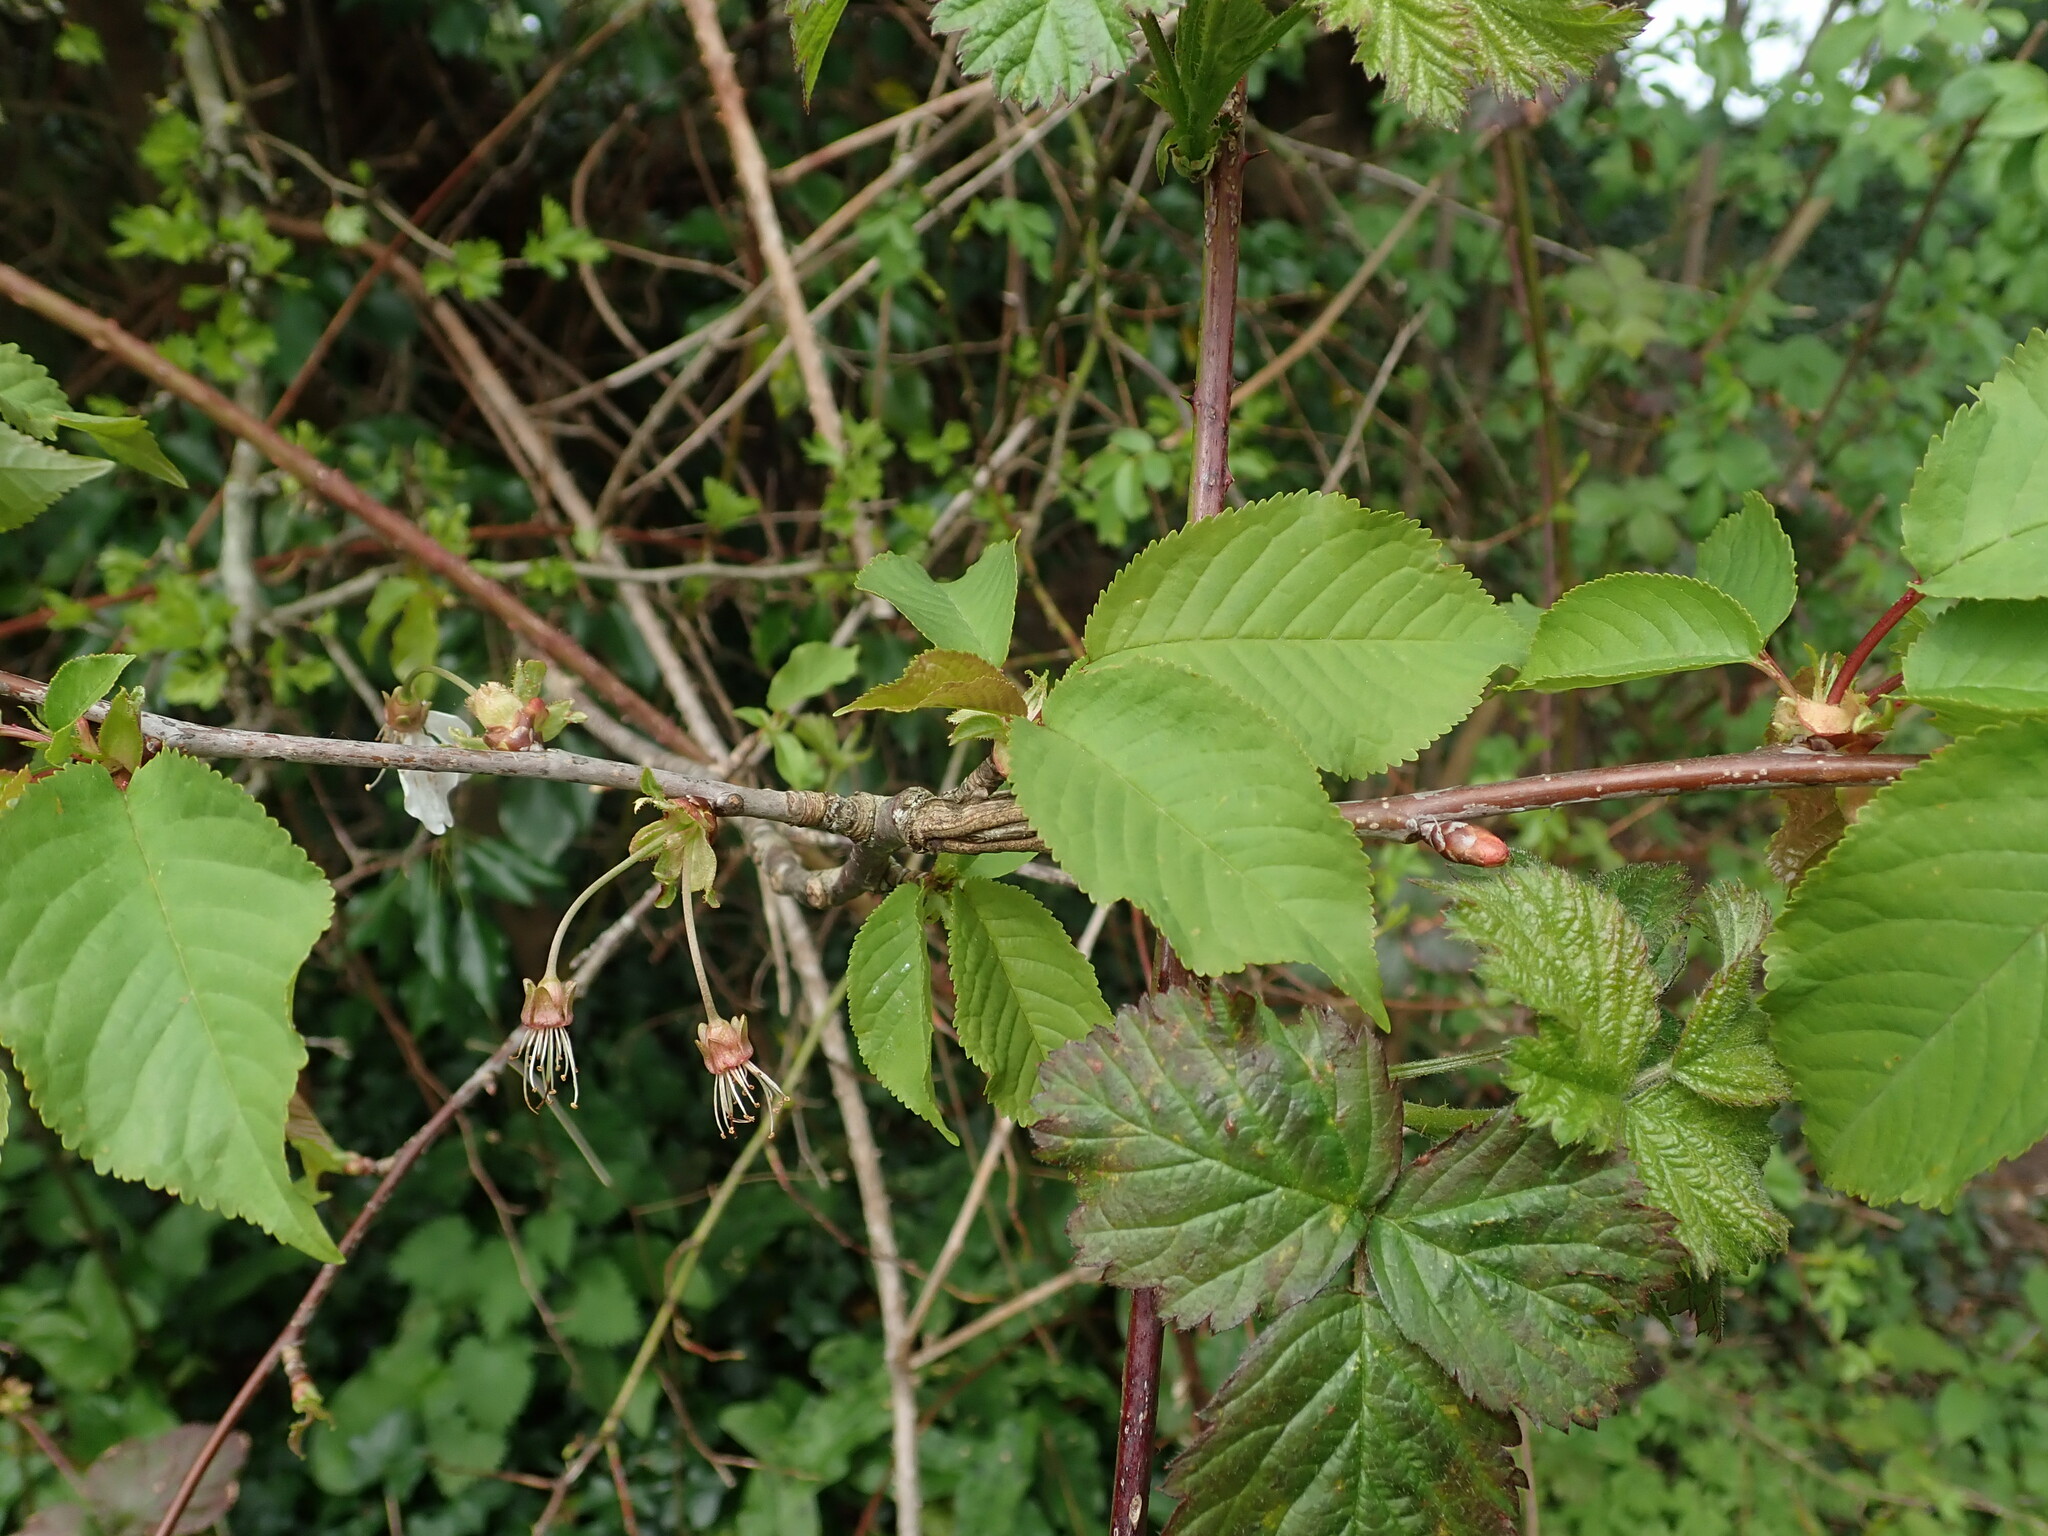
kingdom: Plantae
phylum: Tracheophyta
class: Magnoliopsida
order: Rosales
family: Rosaceae
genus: Prunus
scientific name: Prunus avium
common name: Sweet cherry
